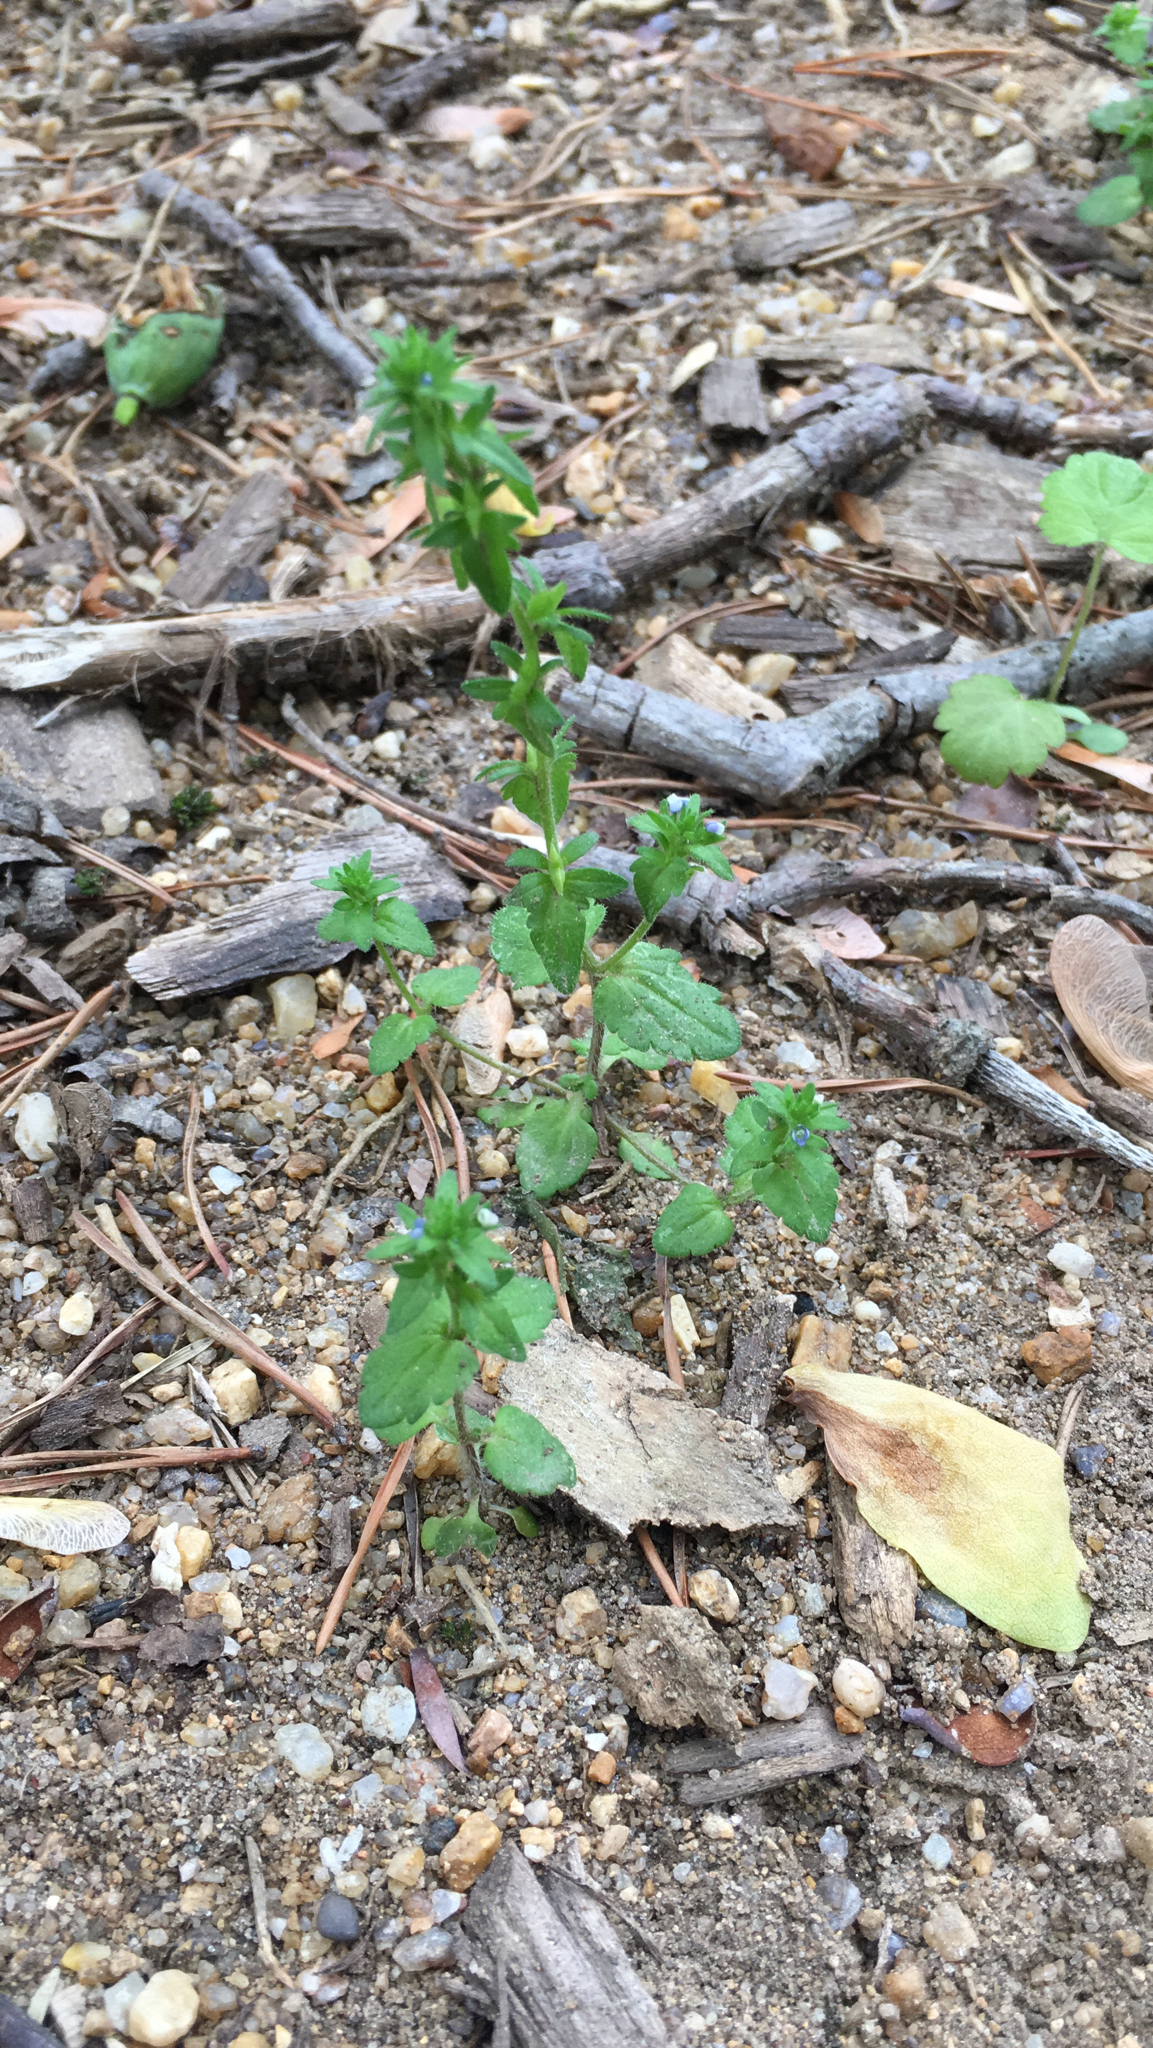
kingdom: Plantae
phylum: Tracheophyta
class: Magnoliopsida
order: Lamiales
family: Plantaginaceae
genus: Veronica
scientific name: Veronica arvensis
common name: Corn speedwell
